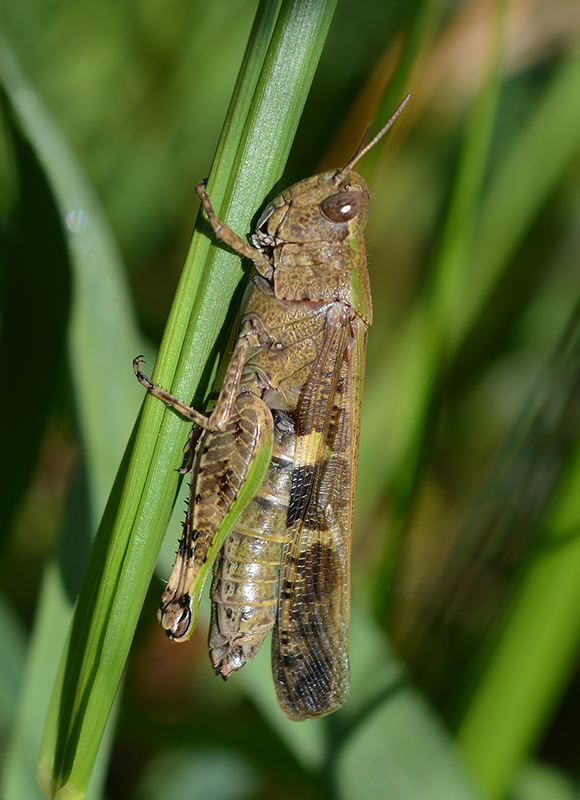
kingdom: Animalia
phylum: Arthropoda
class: Insecta
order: Orthoptera
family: Acrididae
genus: Aiolopus
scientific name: Aiolopus strepens
